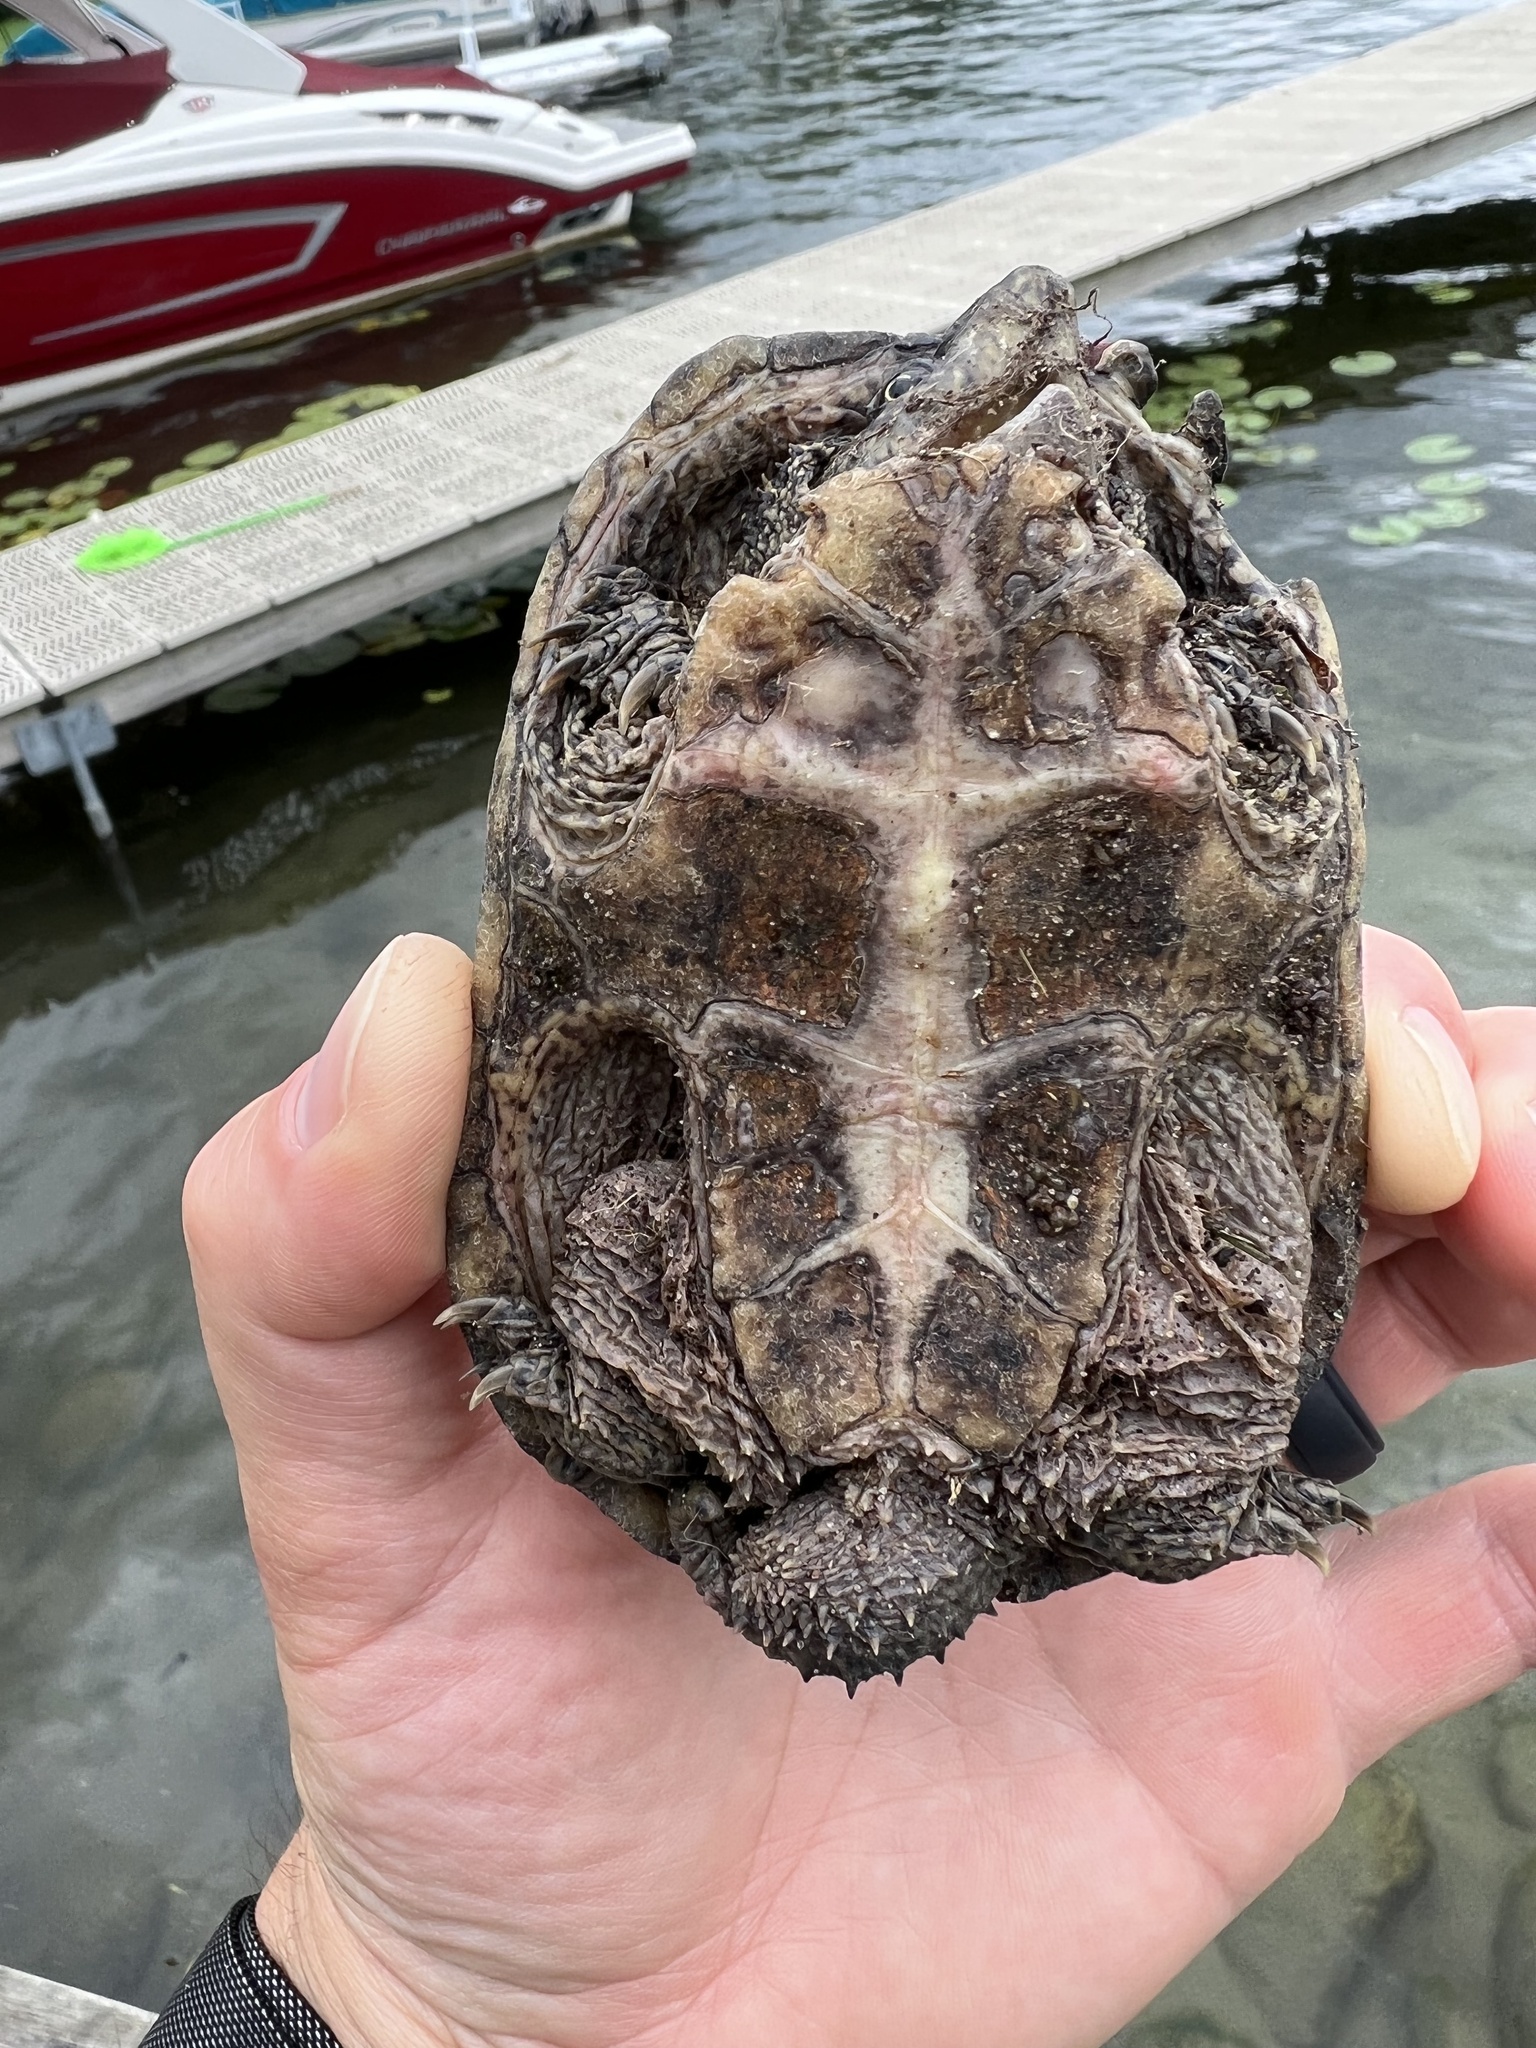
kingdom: Animalia
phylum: Chordata
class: Testudines
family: Kinosternidae
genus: Sternotherus
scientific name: Sternotherus odoratus
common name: Common musk turtle
